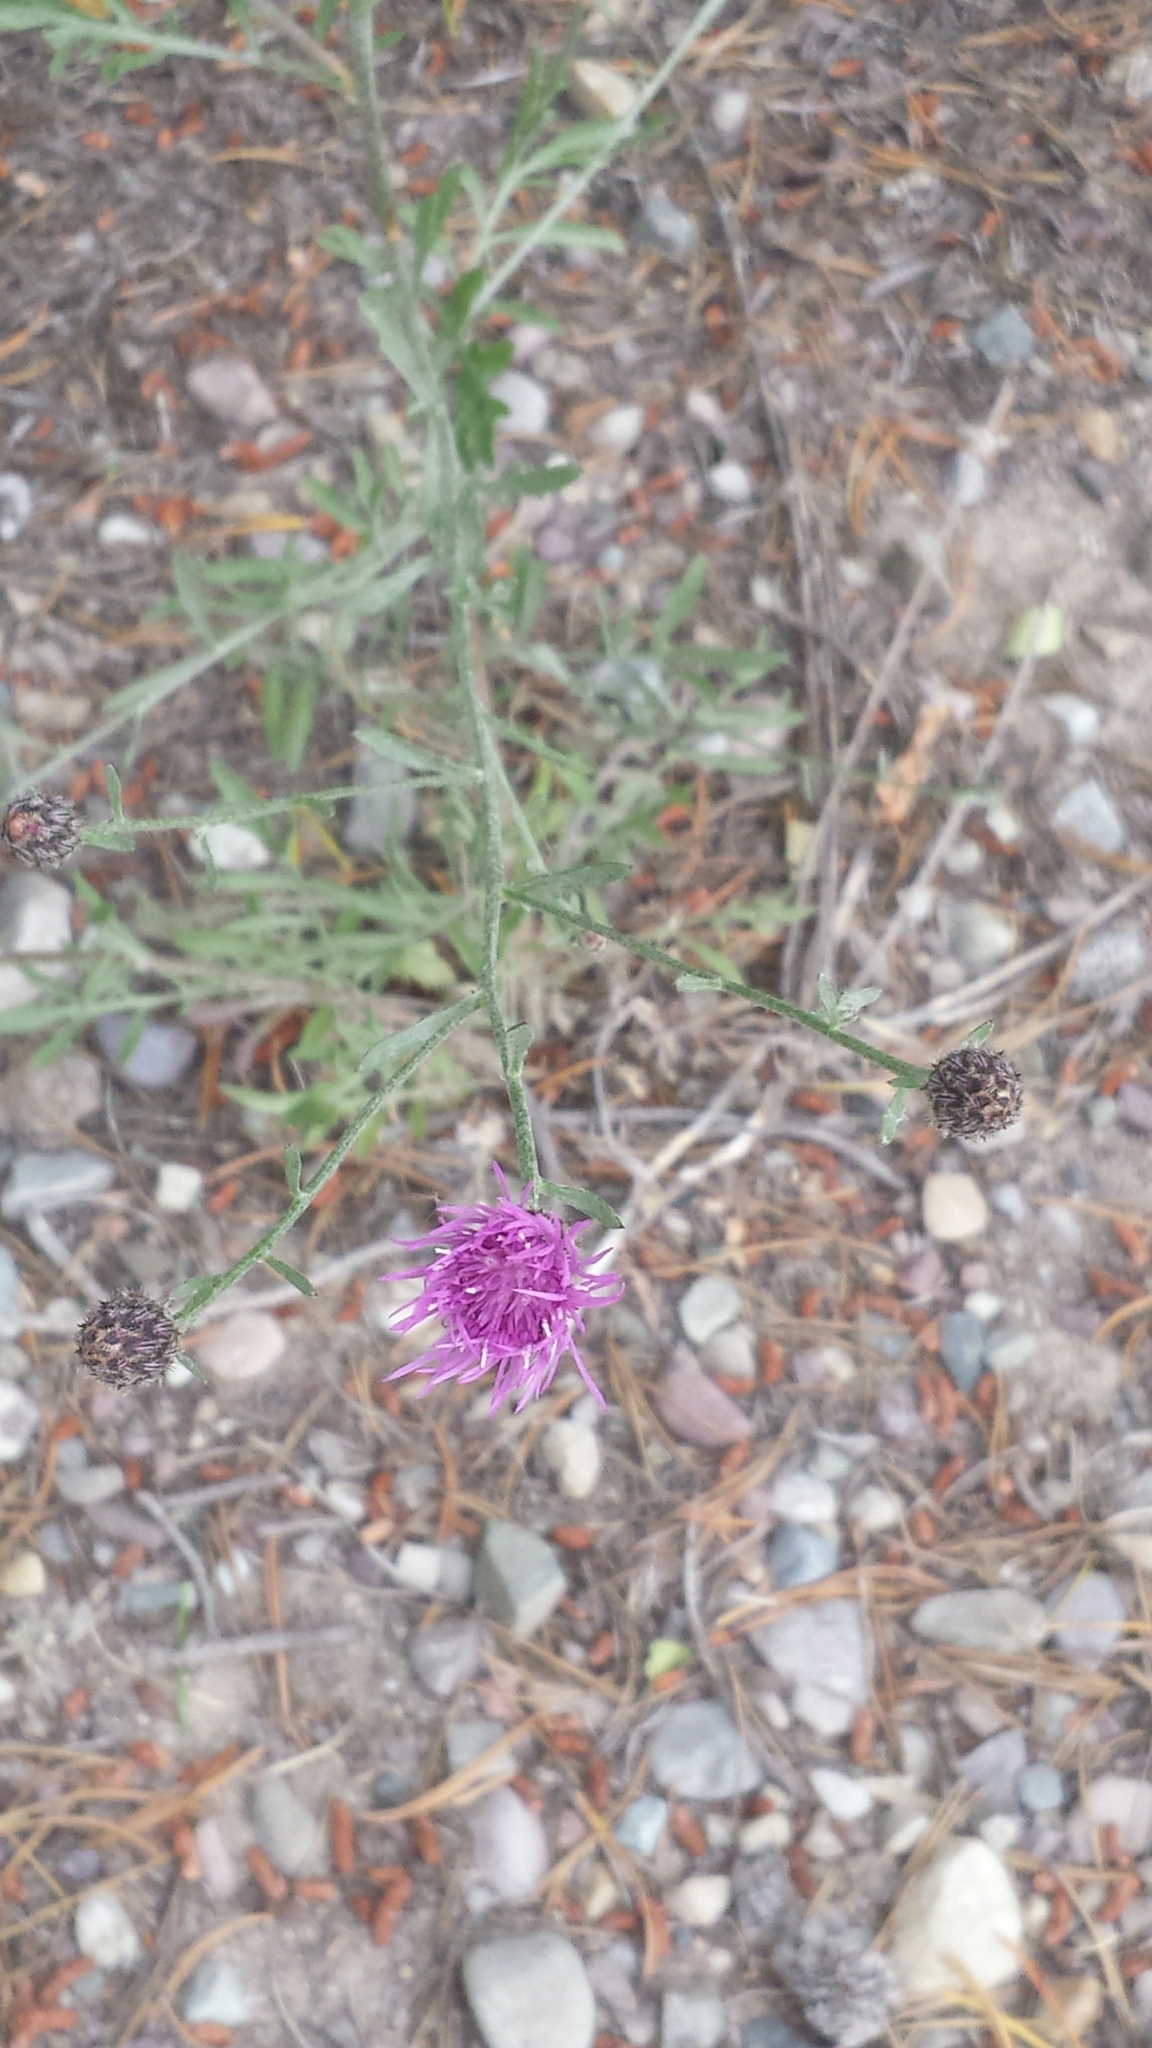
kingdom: Plantae
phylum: Tracheophyta
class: Magnoliopsida
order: Asterales
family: Asteraceae
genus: Centaurea
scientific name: Centaurea stoebe
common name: Spotted knapweed
